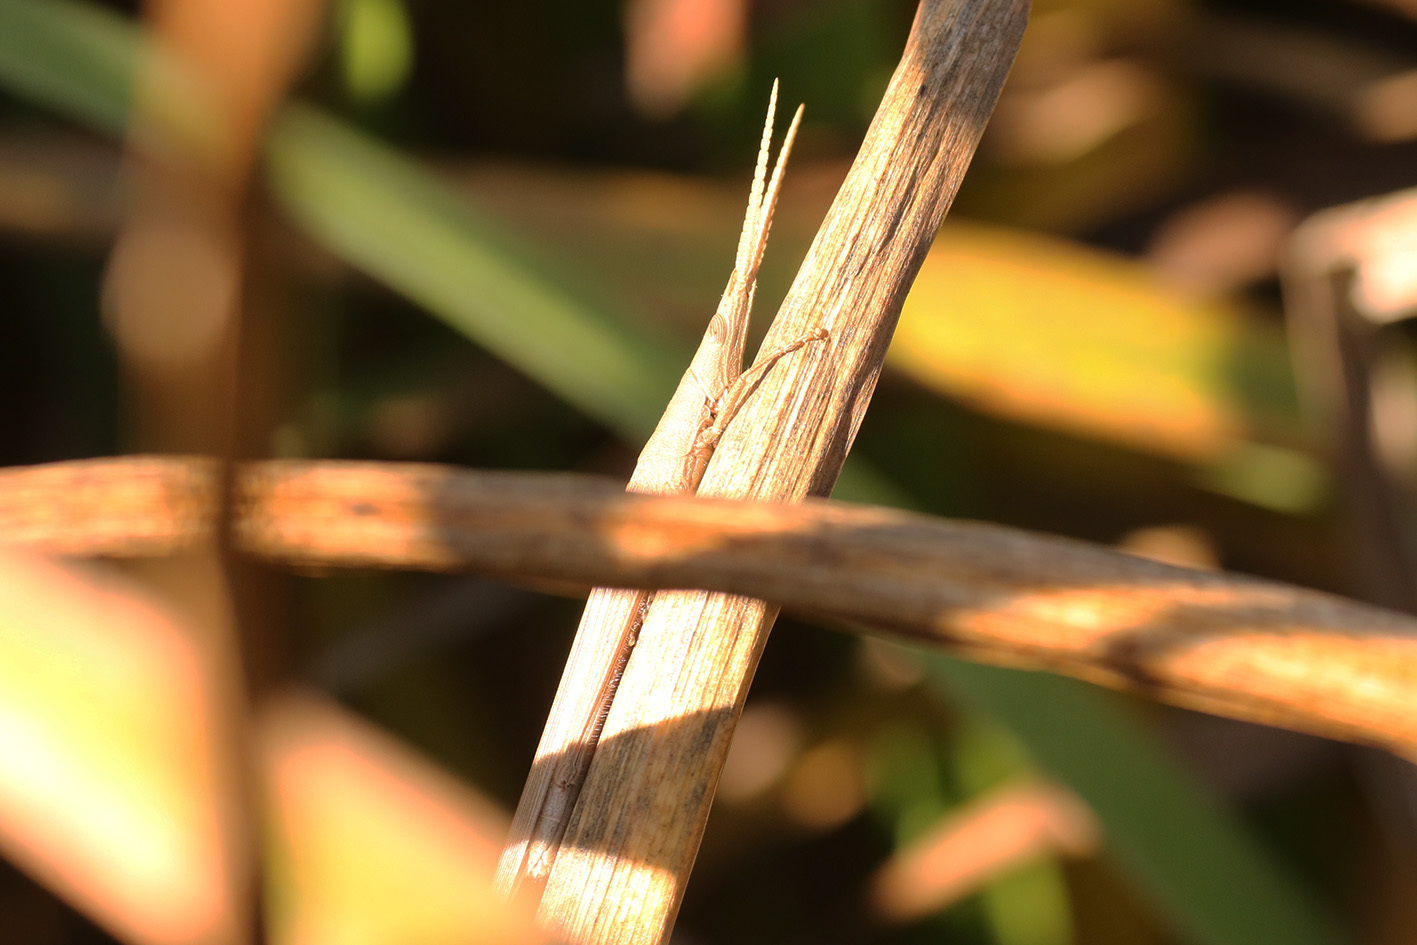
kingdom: Animalia
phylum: Arthropoda
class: Insecta
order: Orthoptera
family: Acrididae
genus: Haroldgrantia
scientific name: Haroldgrantia lignosa
